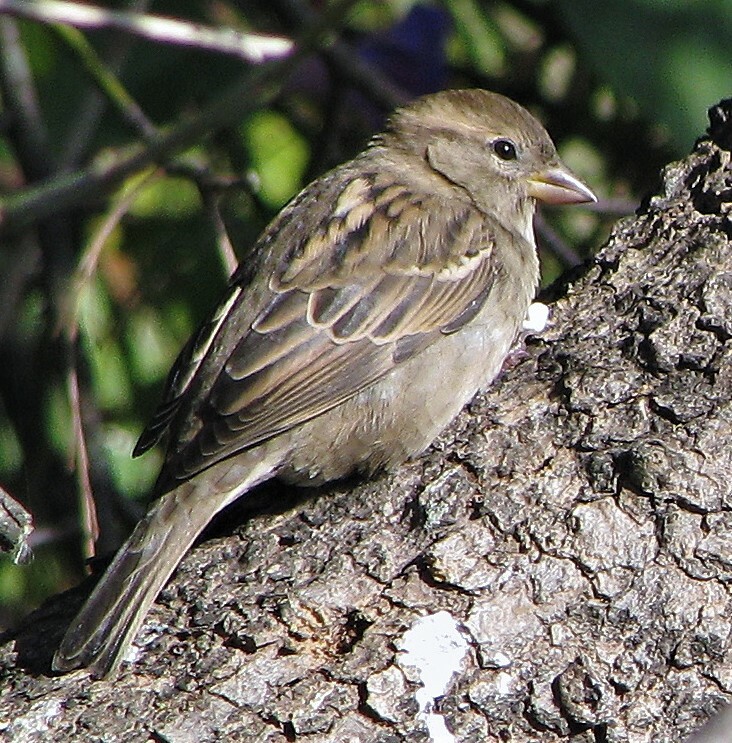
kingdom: Animalia
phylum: Chordata
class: Aves
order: Passeriformes
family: Passeridae
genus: Passer
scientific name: Passer domesticus
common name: House sparrow
